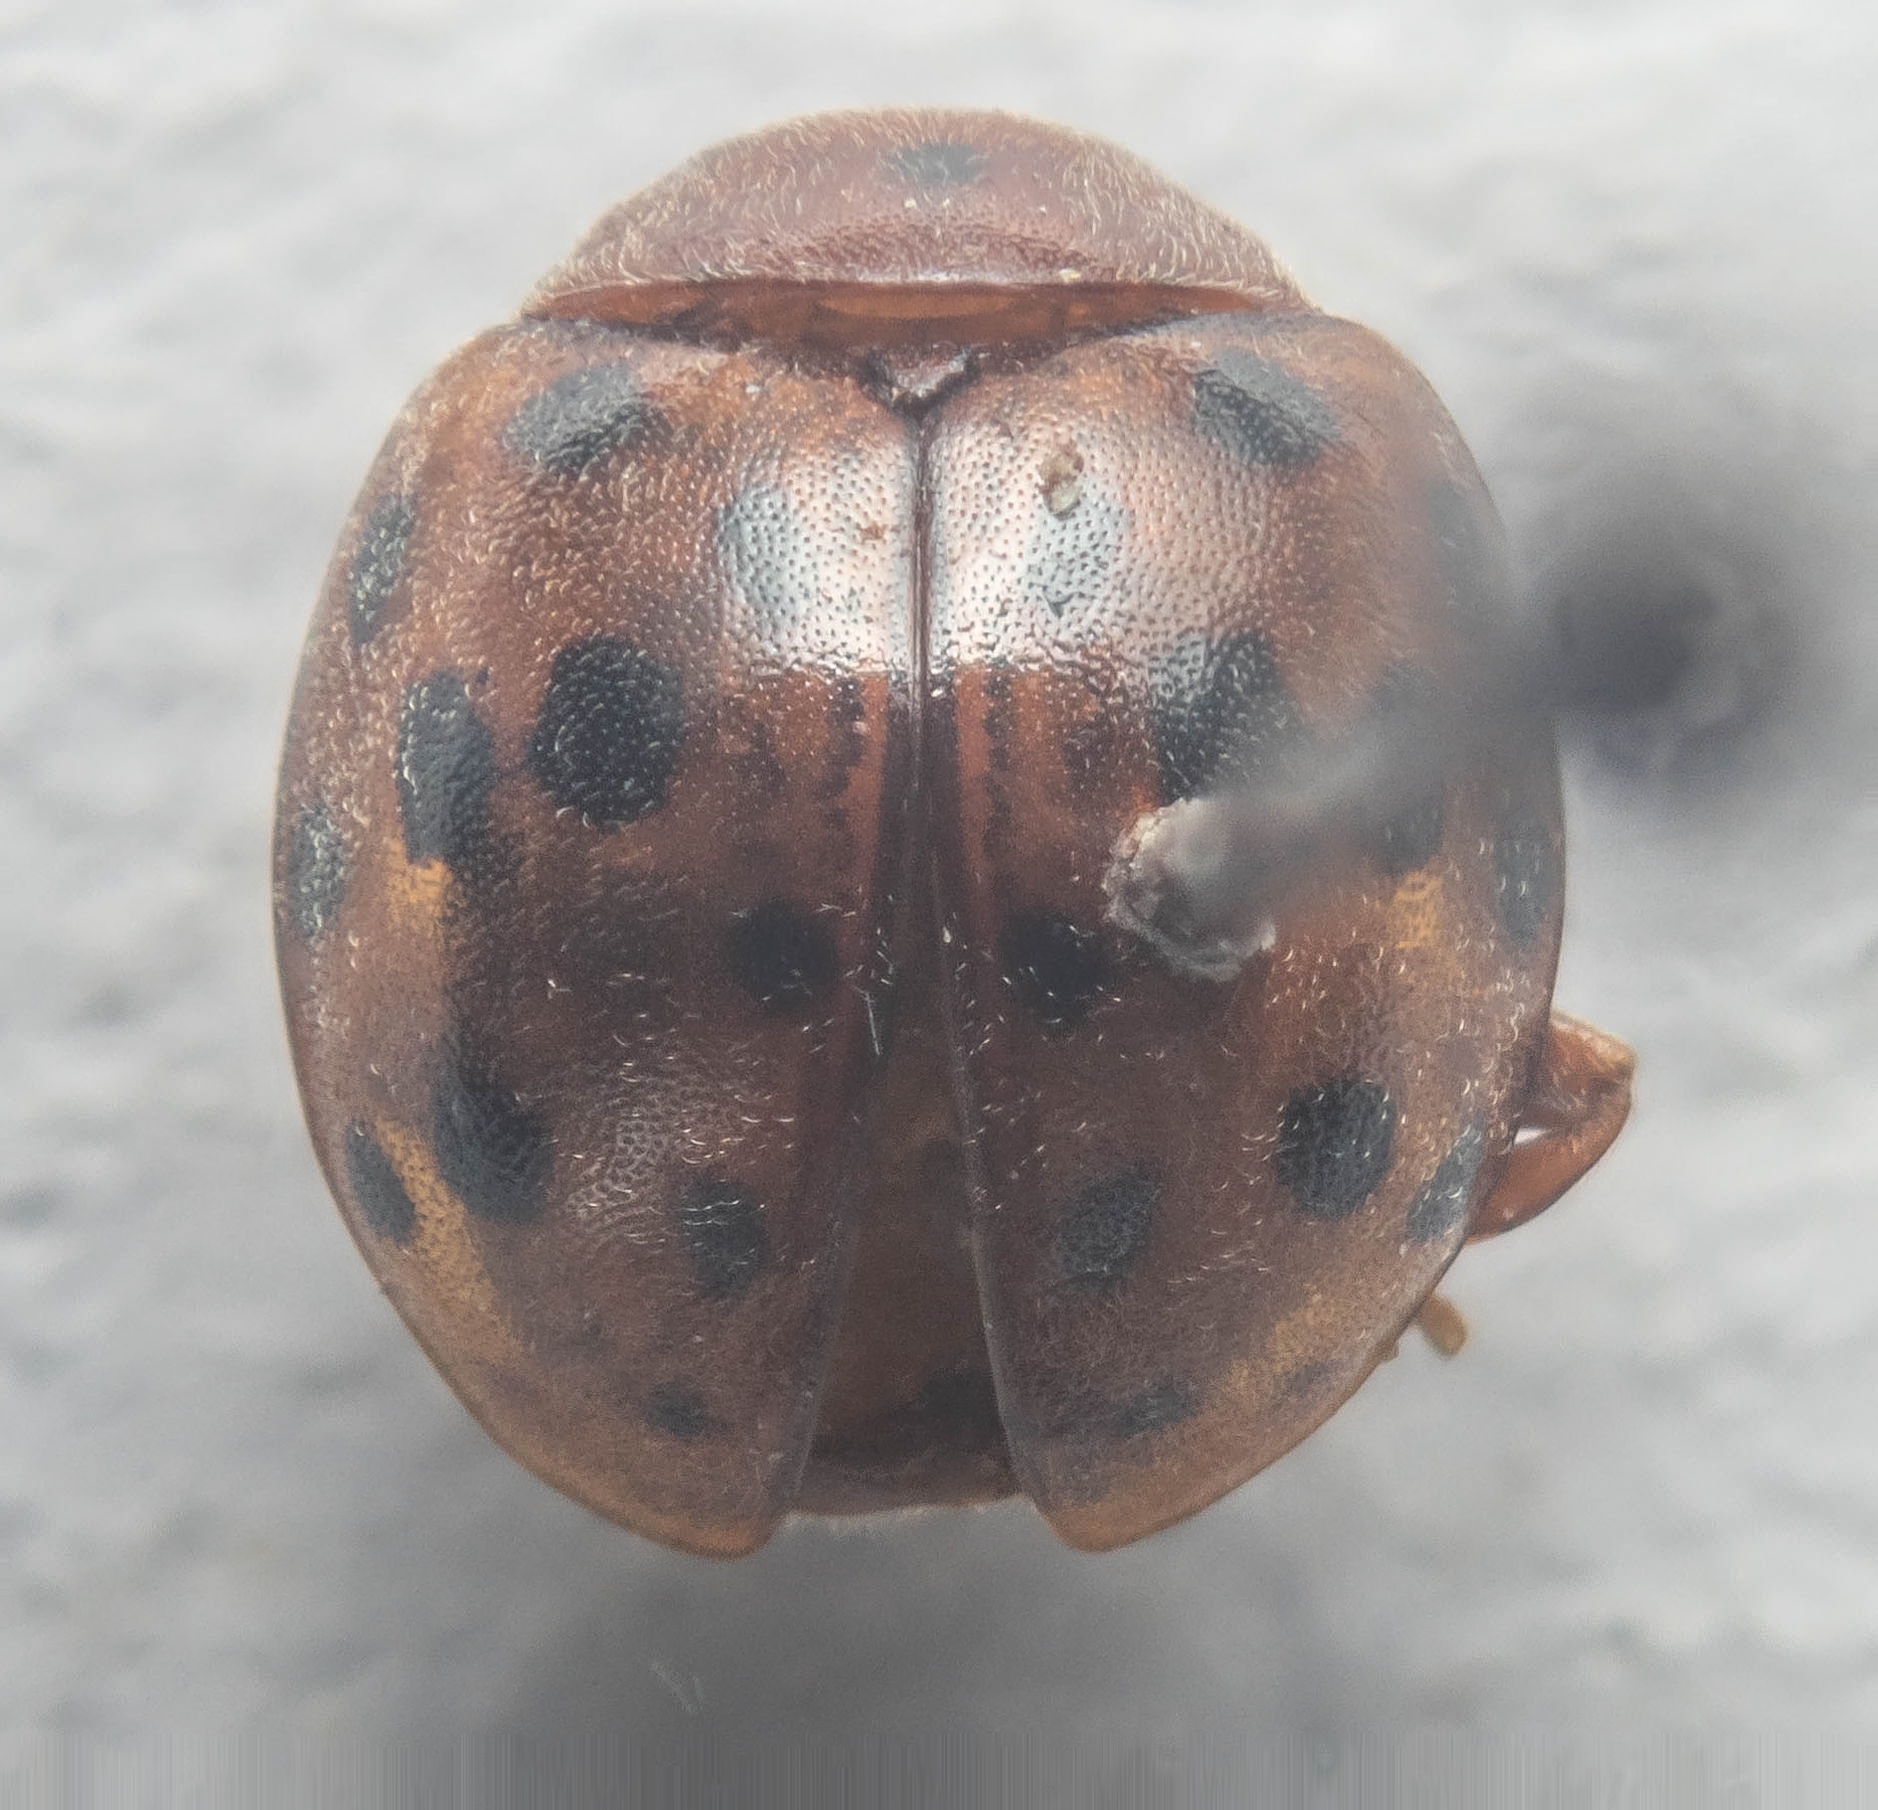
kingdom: Animalia
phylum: Arthropoda
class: Insecta
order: Coleoptera
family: Coccinellidae
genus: Subcoccinella
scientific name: Subcoccinella vigintiquatuorpunctata
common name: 24-spot ladybird
